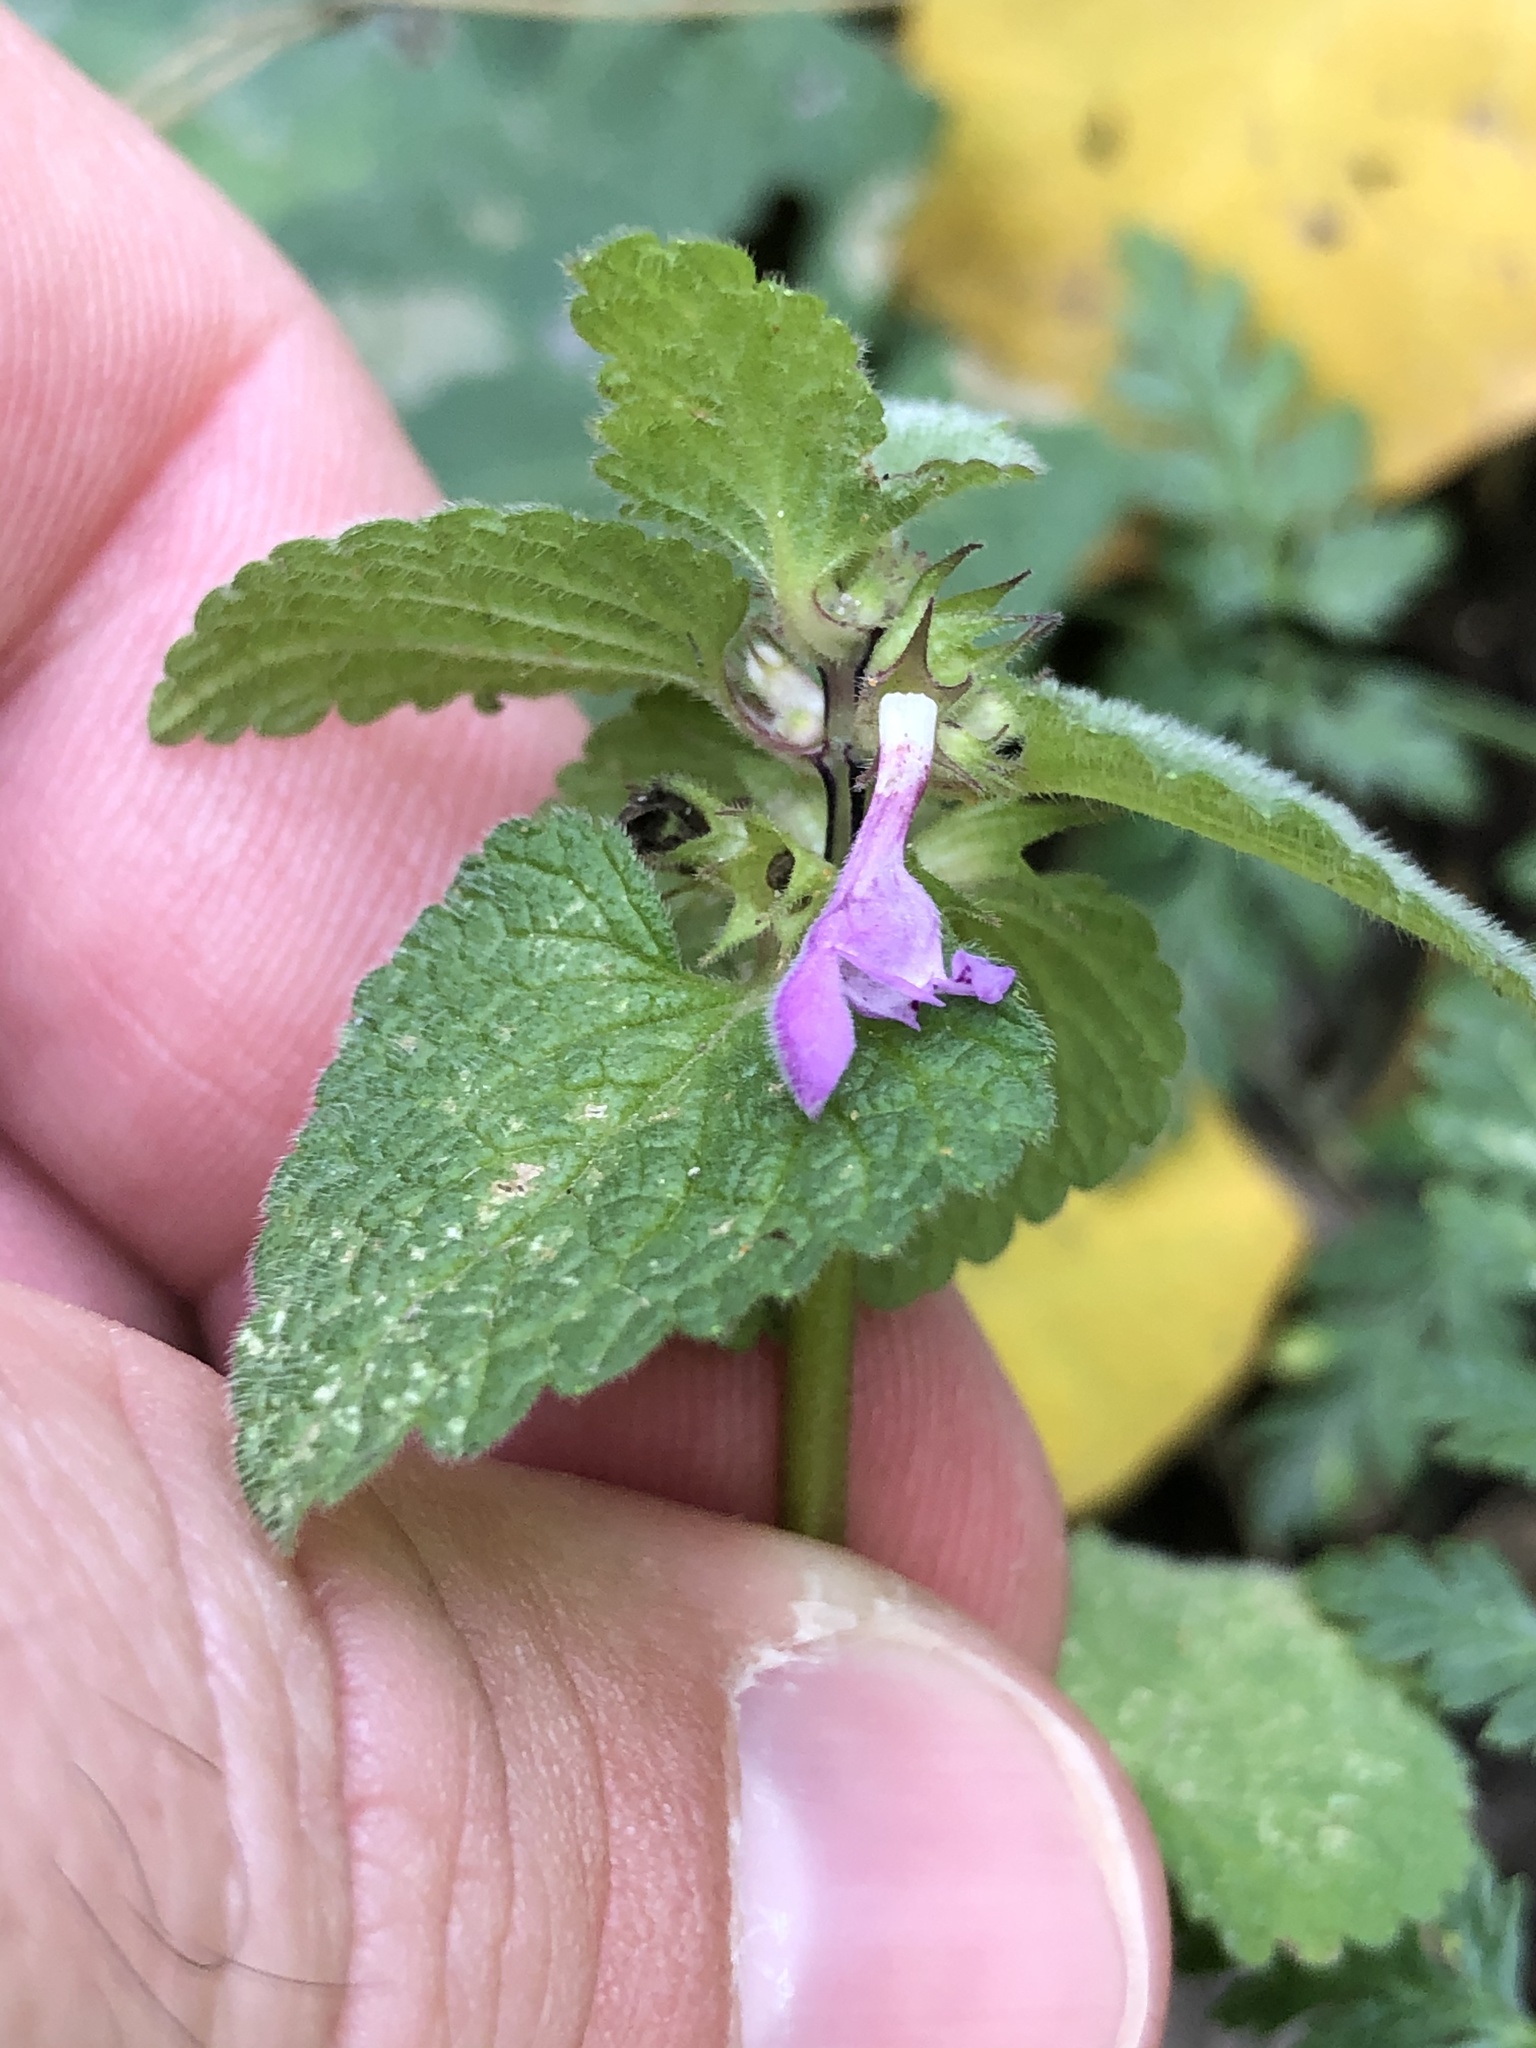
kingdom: Plantae
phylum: Tracheophyta
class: Magnoliopsida
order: Lamiales
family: Lamiaceae
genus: Lamium
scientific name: Lamium purpureum
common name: Red dead-nettle
